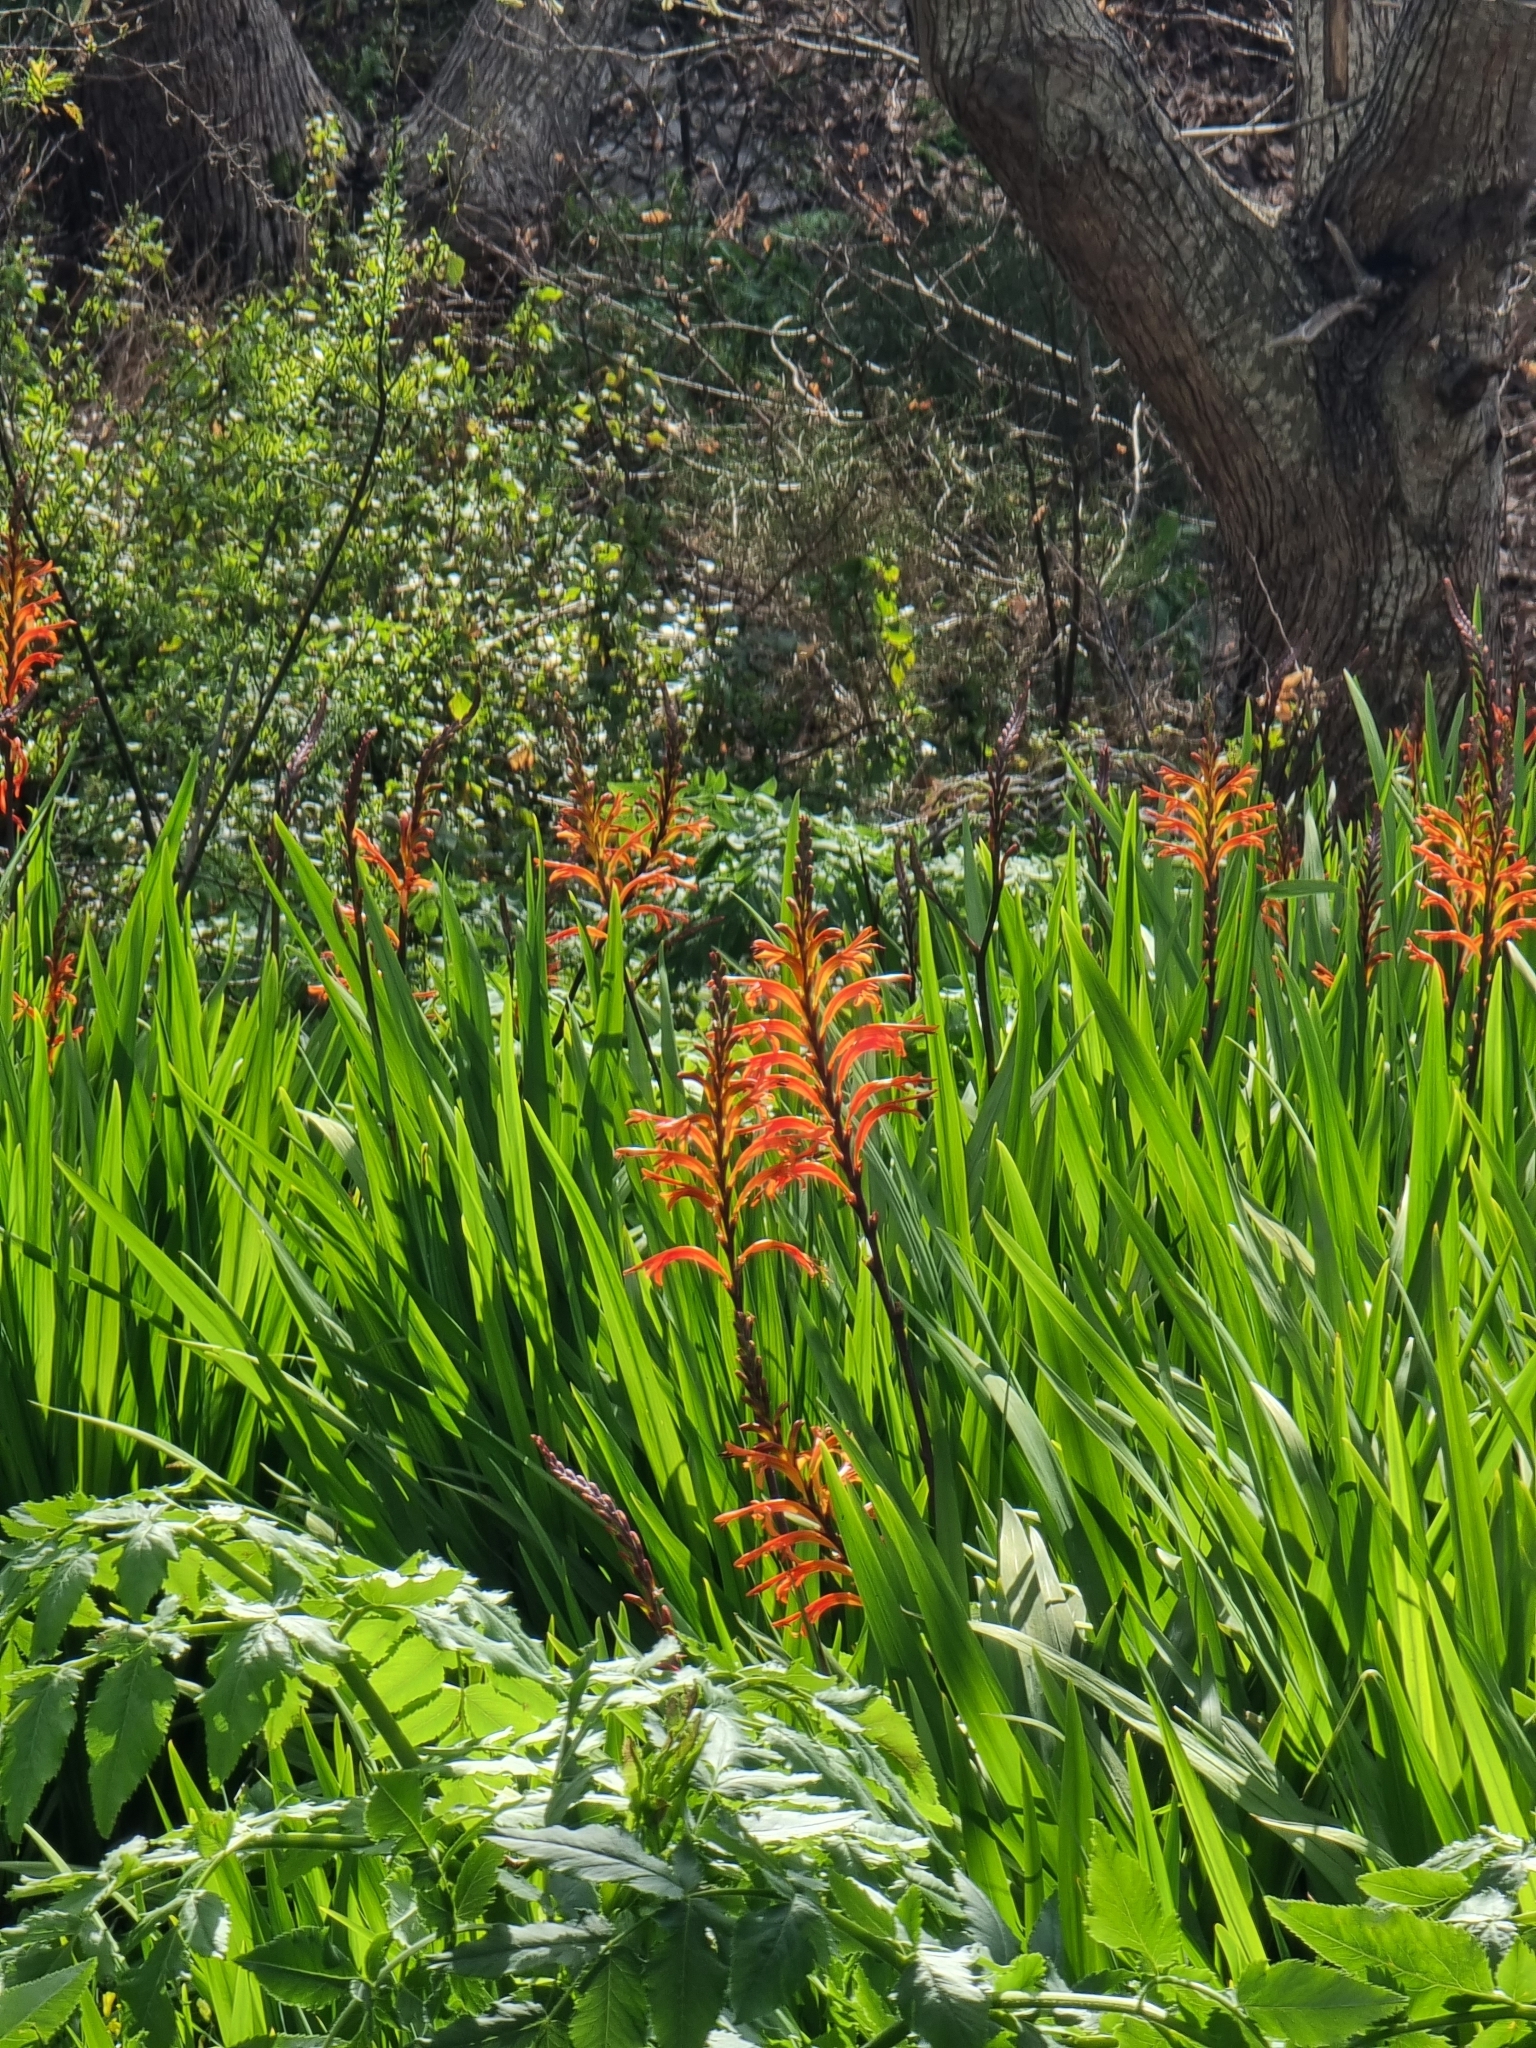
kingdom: Plantae
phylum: Tracheophyta
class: Liliopsida
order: Asparagales
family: Iridaceae
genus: Chasmanthe
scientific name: Chasmanthe floribunda
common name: African cornflag
